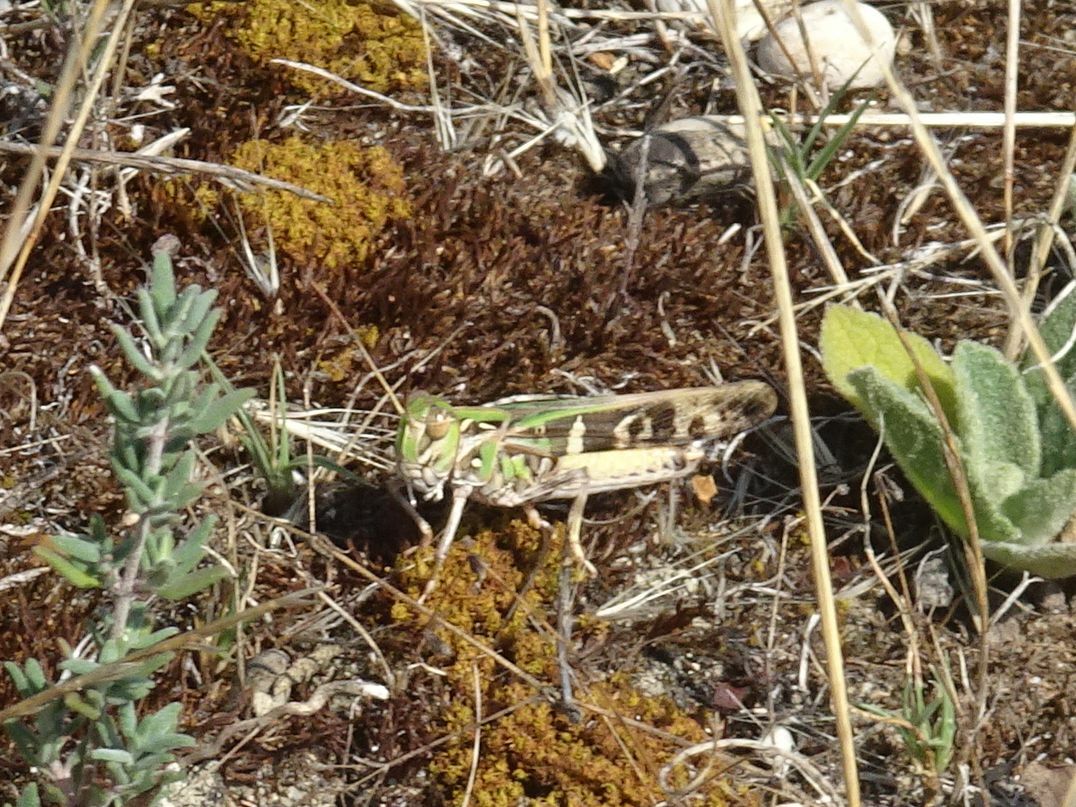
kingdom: Animalia
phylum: Arthropoda
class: Insecta
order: Orthoptera
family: Acrididae
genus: Oedaleus
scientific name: Oedaleus decorus
